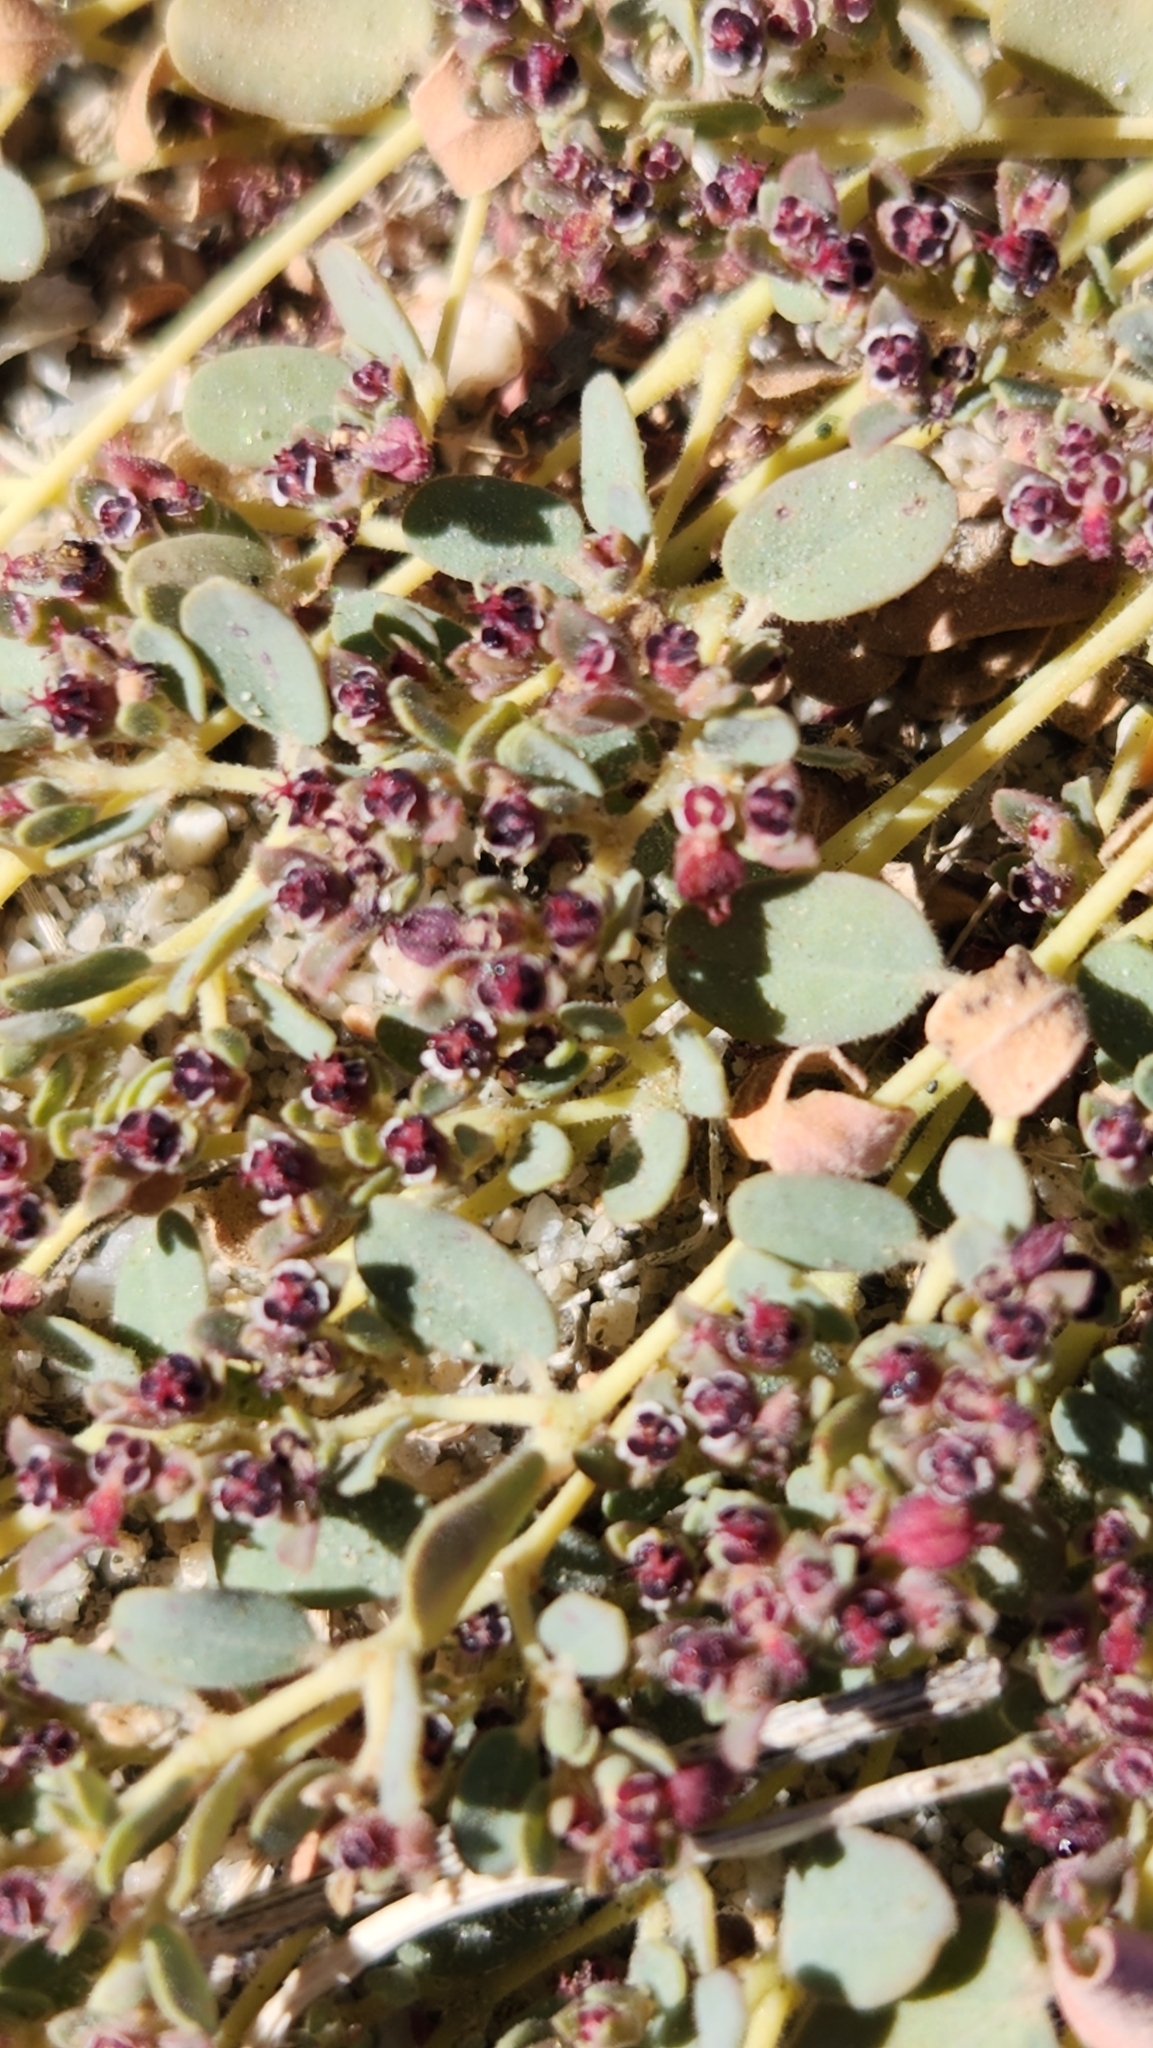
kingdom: Plantae
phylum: Tracheophyta
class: Magnoliopsida
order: Malpighiales
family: Euphorbiaceae
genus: Euphorbia
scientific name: Euphorbia polycarpa
